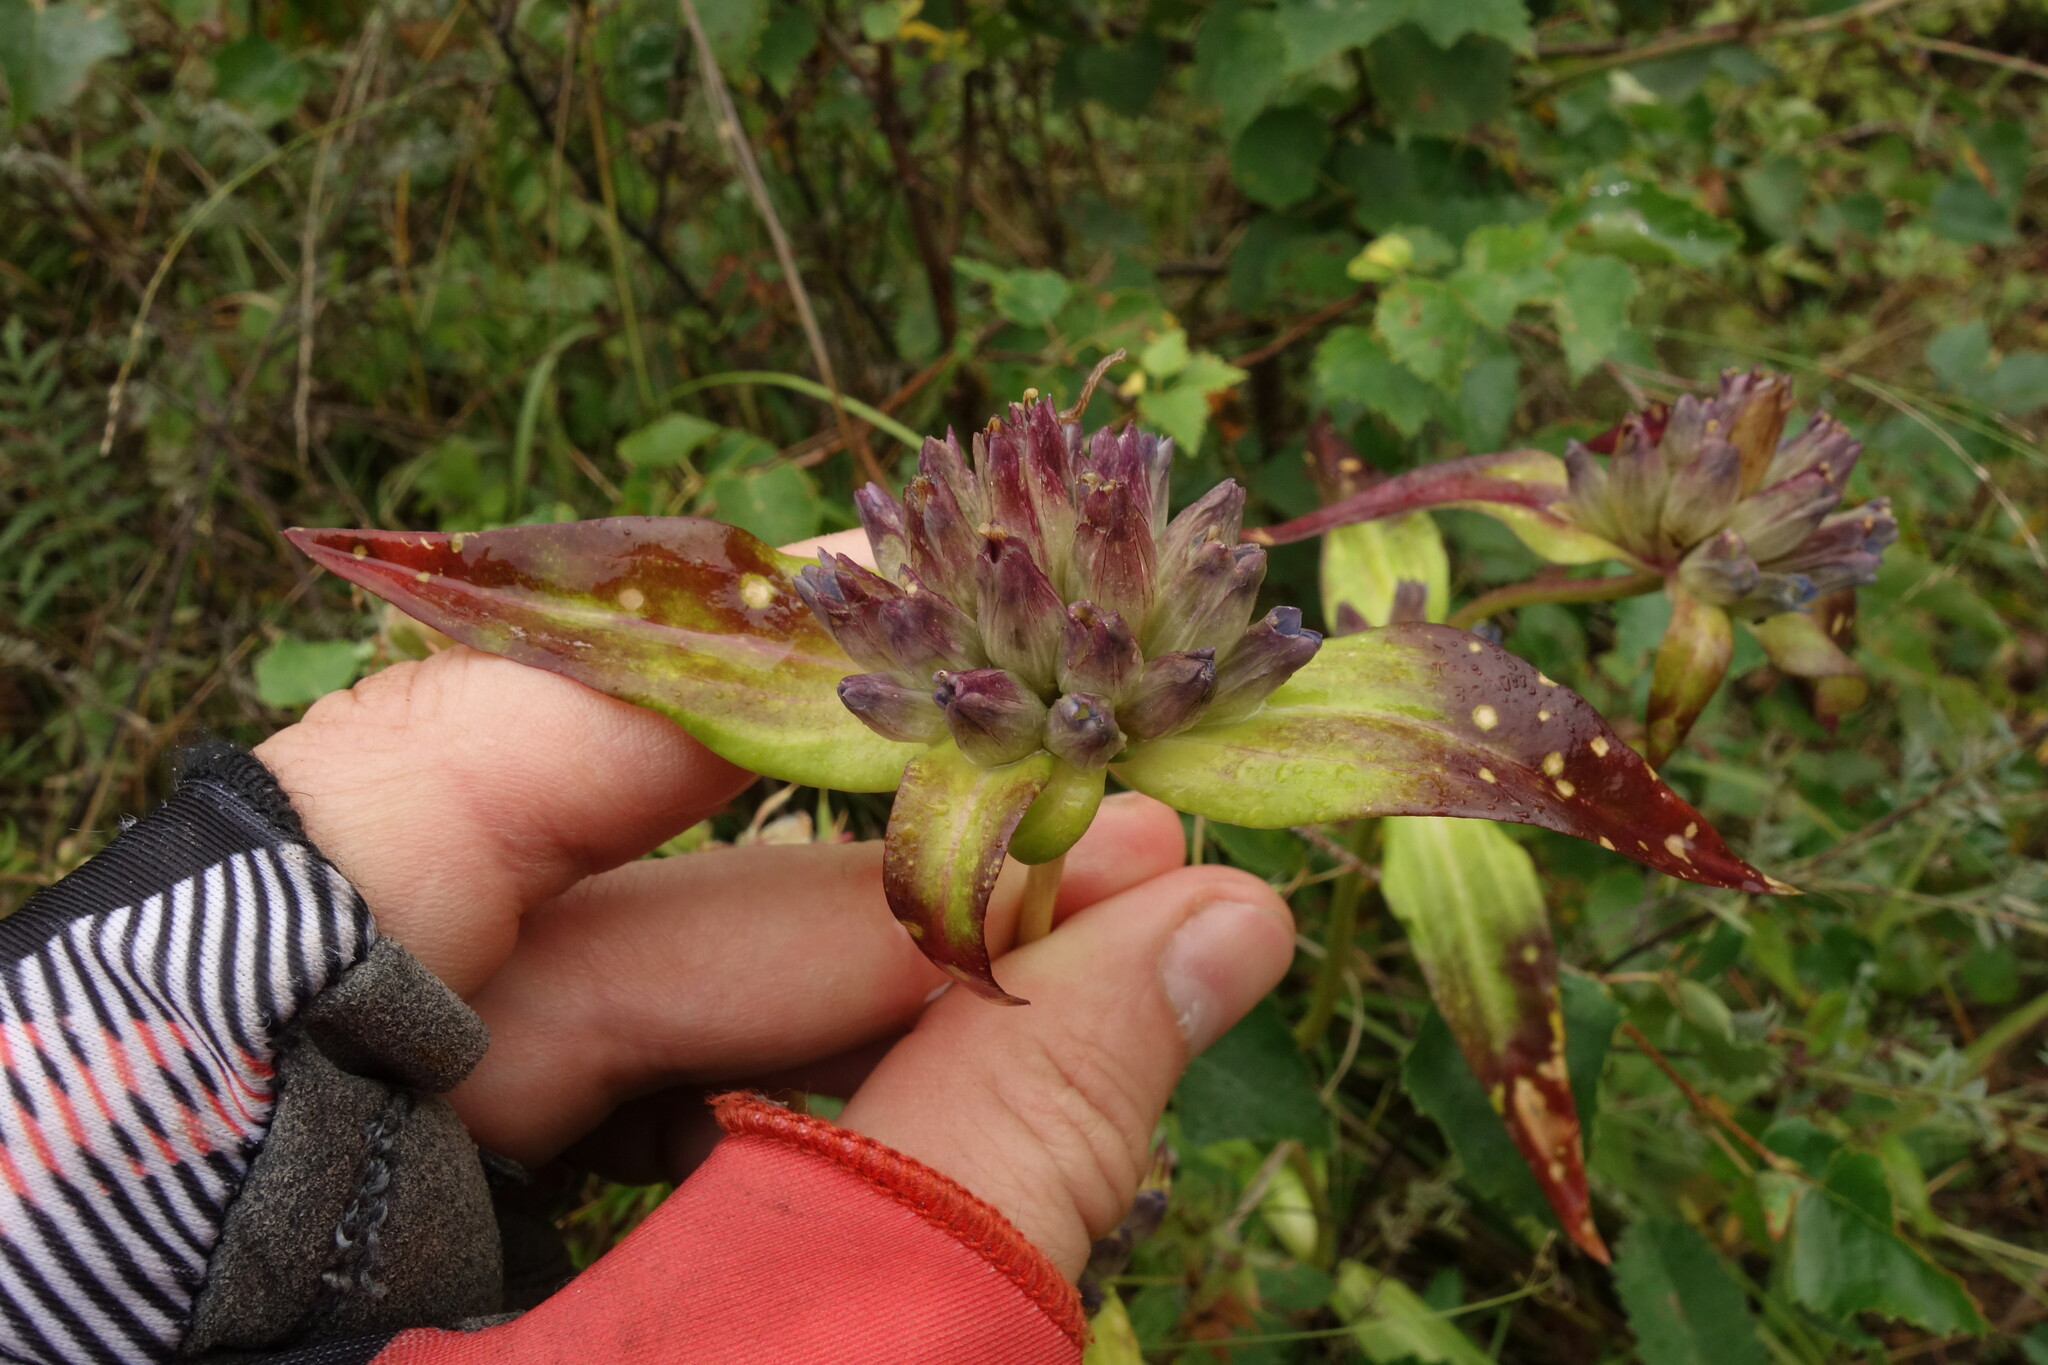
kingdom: Plantae
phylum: Tracheophyta
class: Magnoliopsida
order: Gentianales
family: Gentianaceae
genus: Gentiana
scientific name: Gentiana macrophylla
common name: Large-leaf gentian
